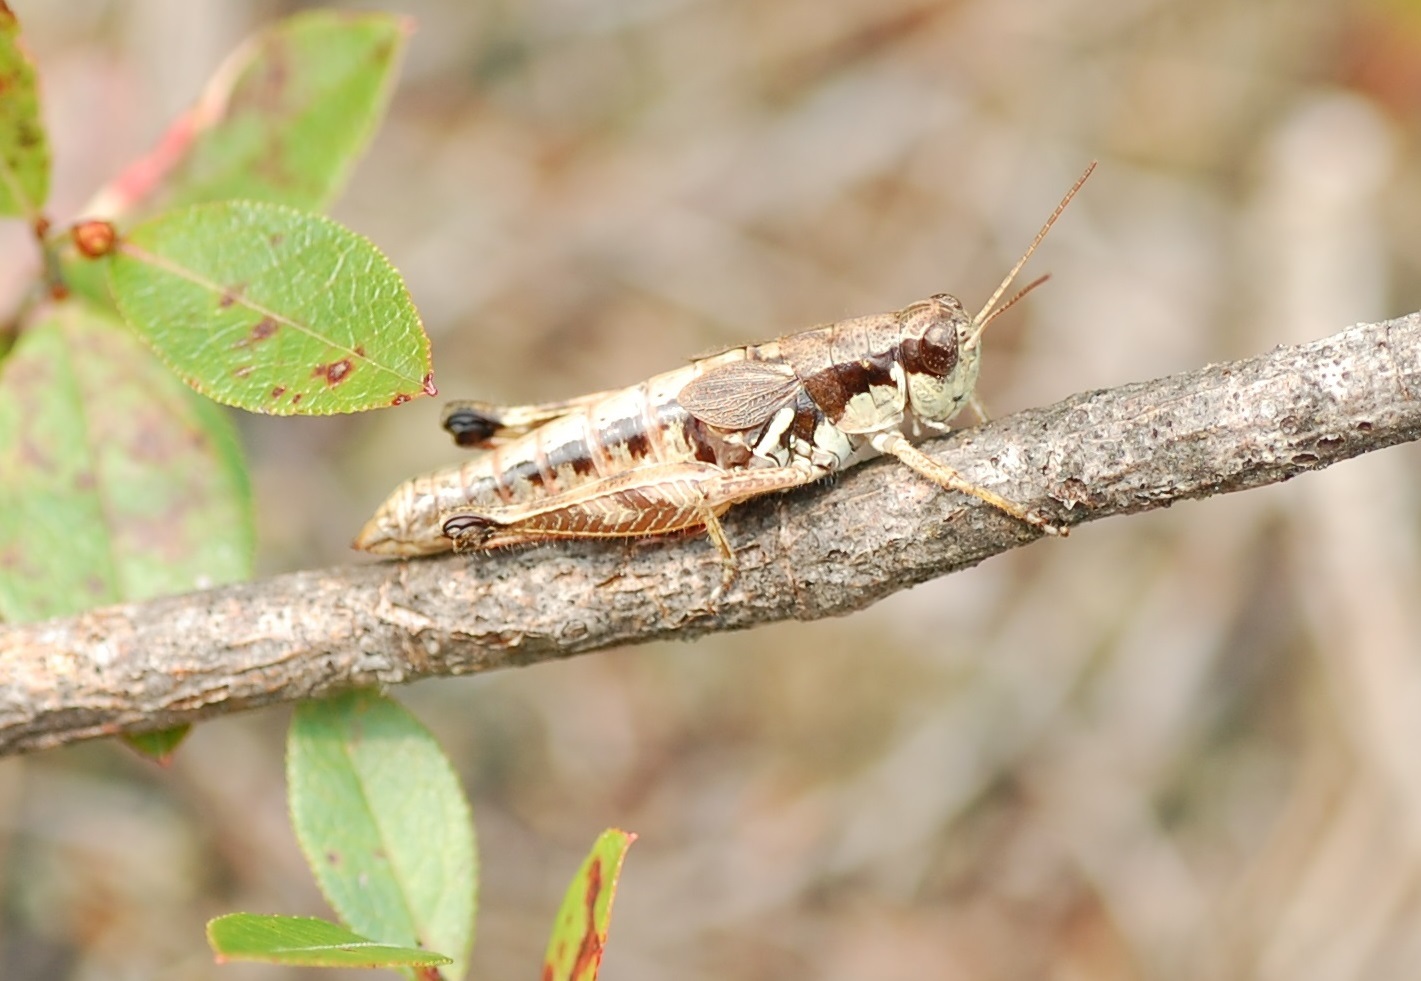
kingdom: Animalia
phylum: Arthropoda
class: Insecta
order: Orthoptera
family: Acrididae
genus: Melanoplus
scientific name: Melanoplus islandicus
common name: Island locust
